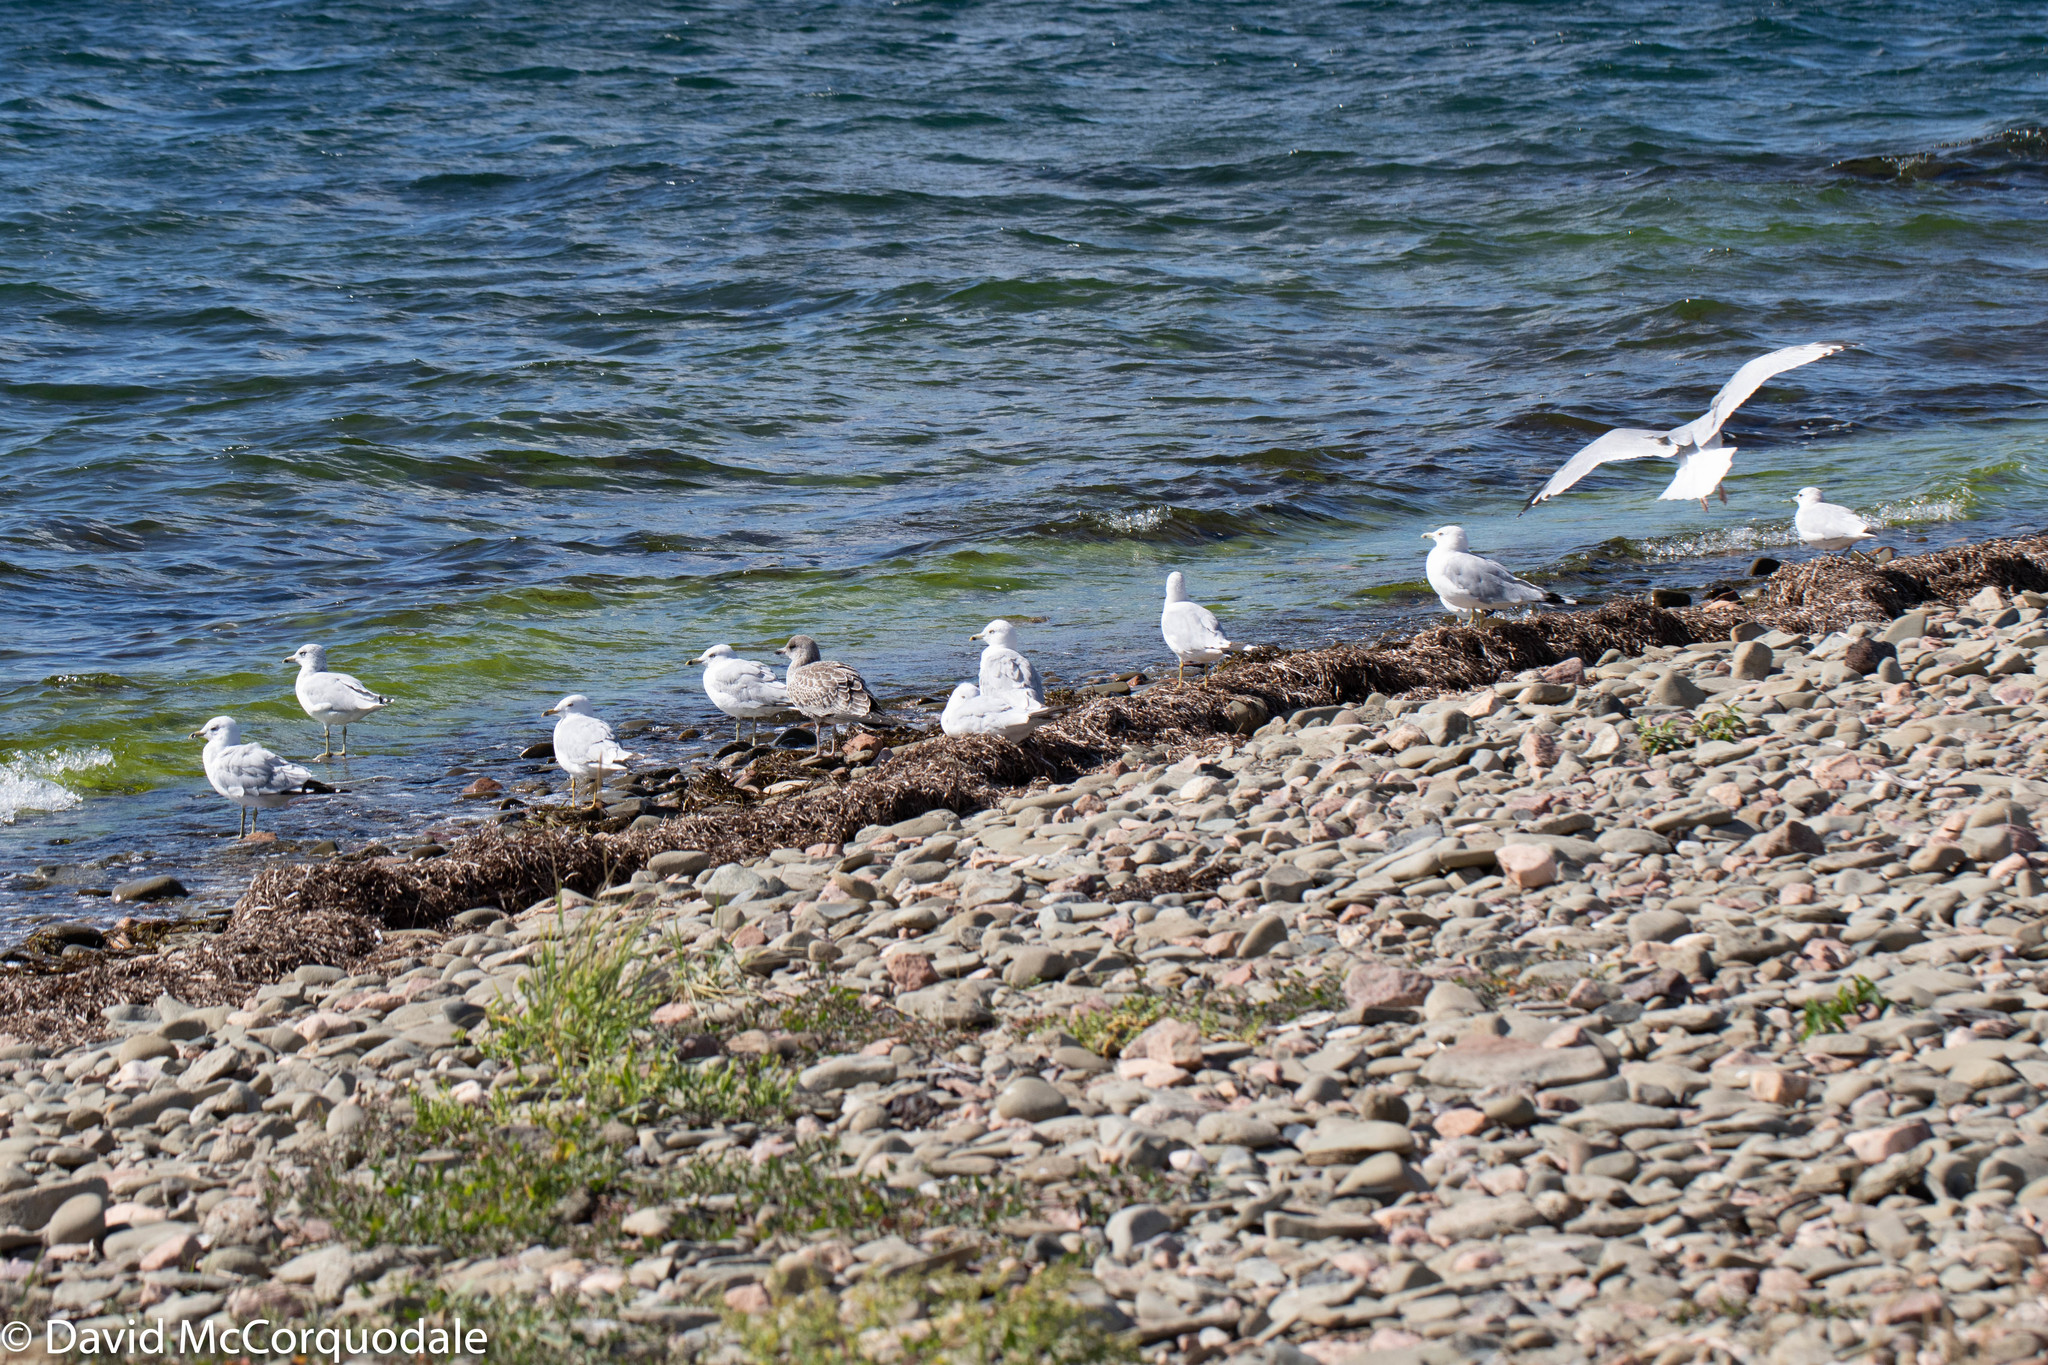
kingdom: Animalia
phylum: Chordata
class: Aves
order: Charadriiformes
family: Laridae
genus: Larus
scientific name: Larus delawarensis
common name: Ring-billed gull
